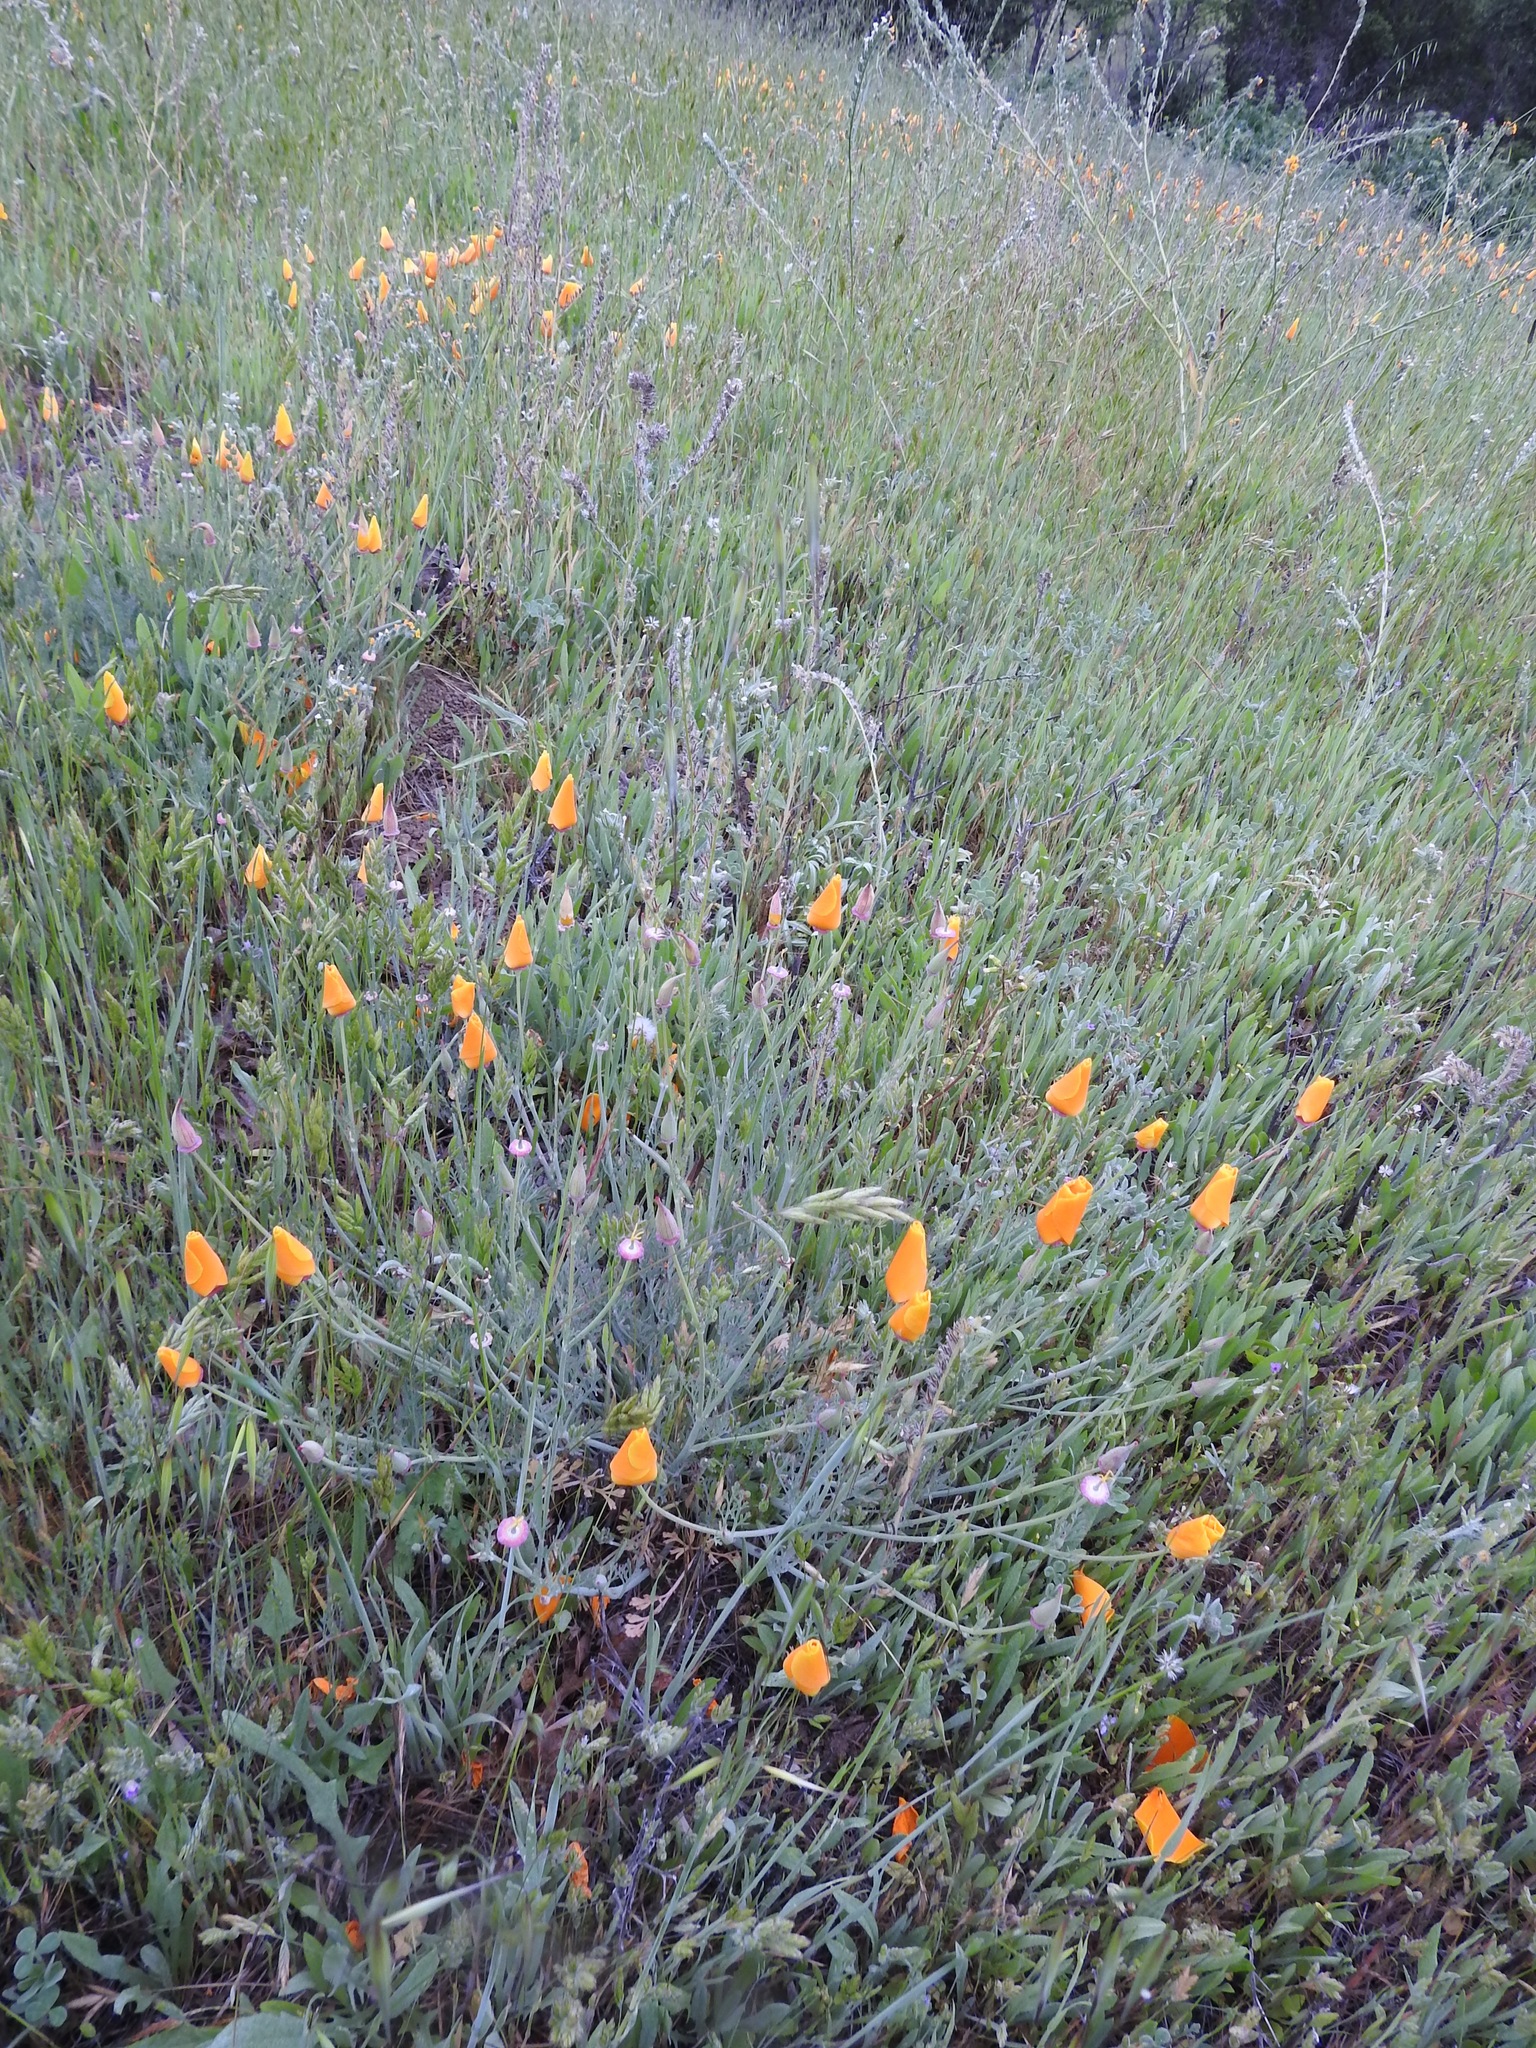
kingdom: Plantae
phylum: Tracheophyta
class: Magnoliopsida
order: Ranunculales
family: Papaveraceae
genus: Eschscholzia
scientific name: Eschscholzia californica
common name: California poppy
